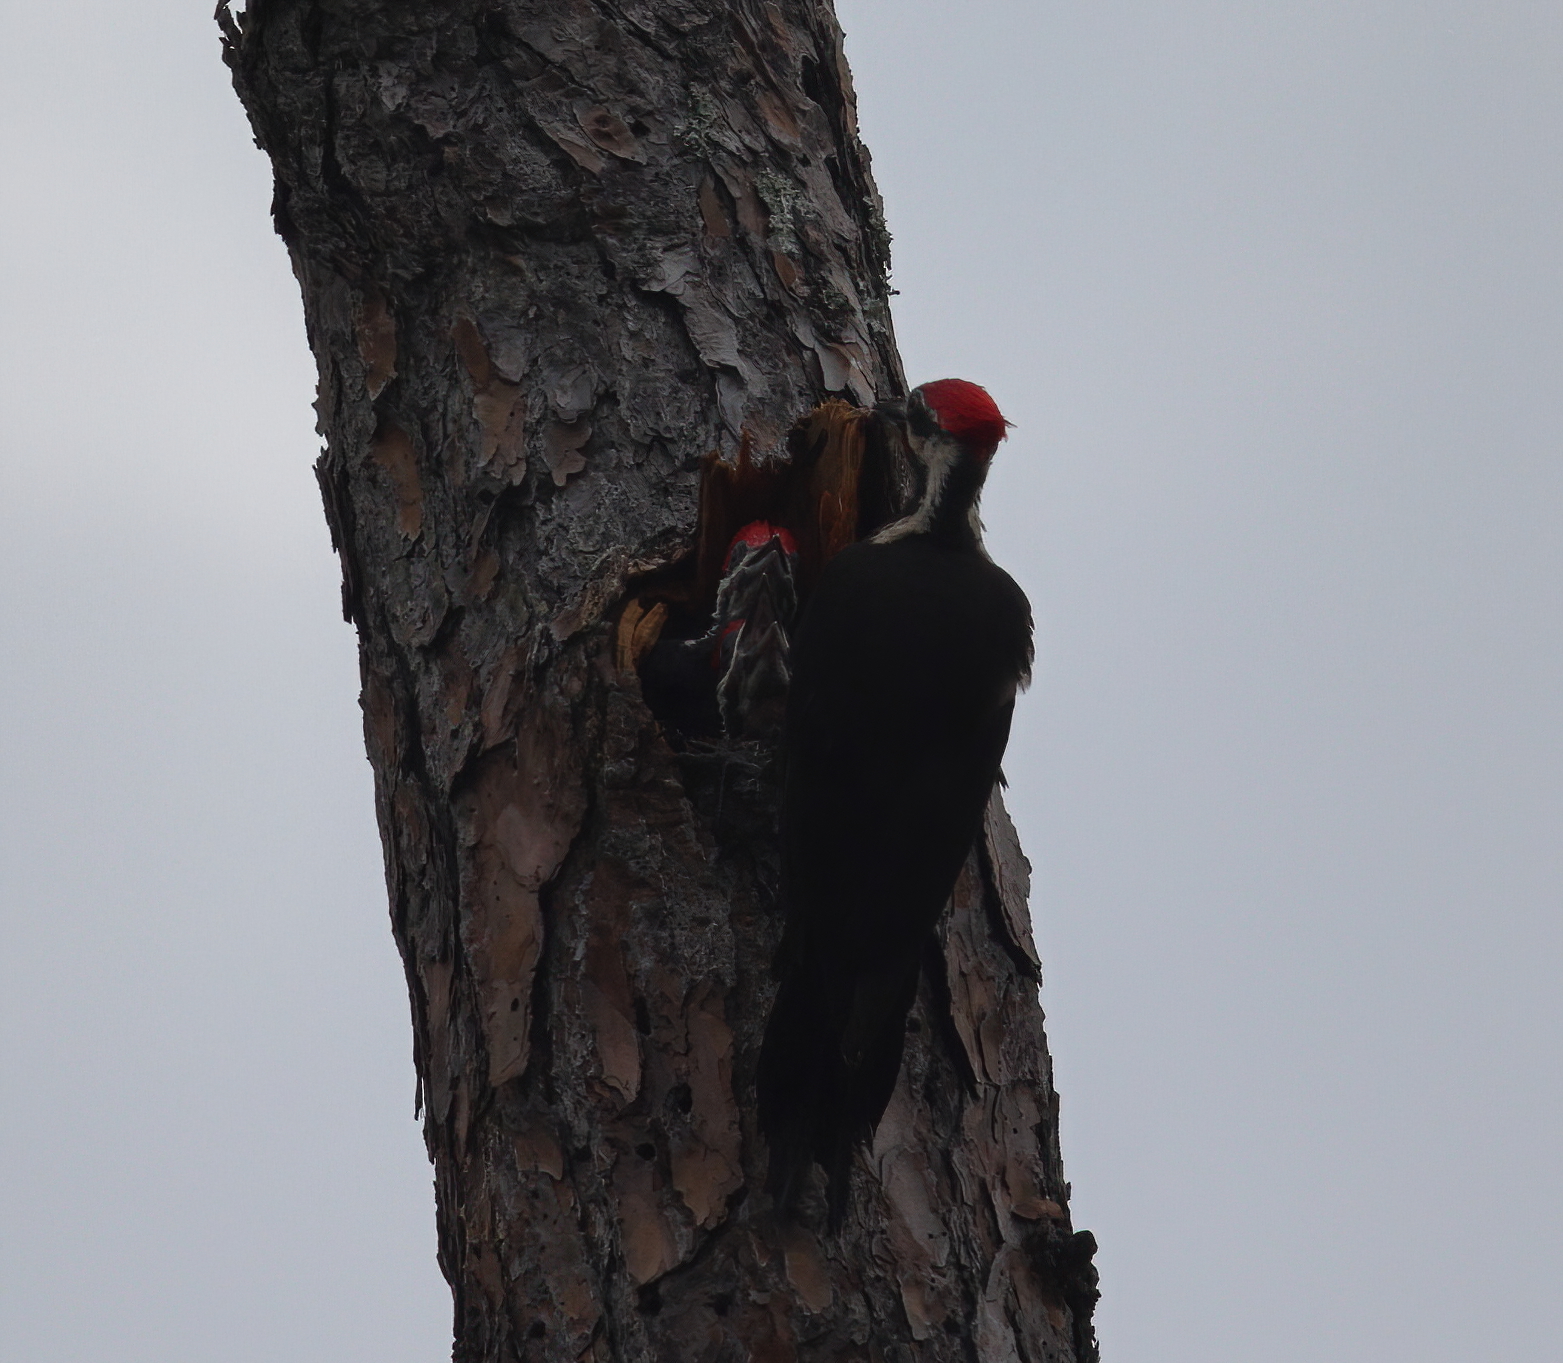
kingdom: Animalia
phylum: Chordata
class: Aves
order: Piciformes
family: Picidae
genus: Dryocopus
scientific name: Dryocopus pileatus
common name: Pileated woodpecker
